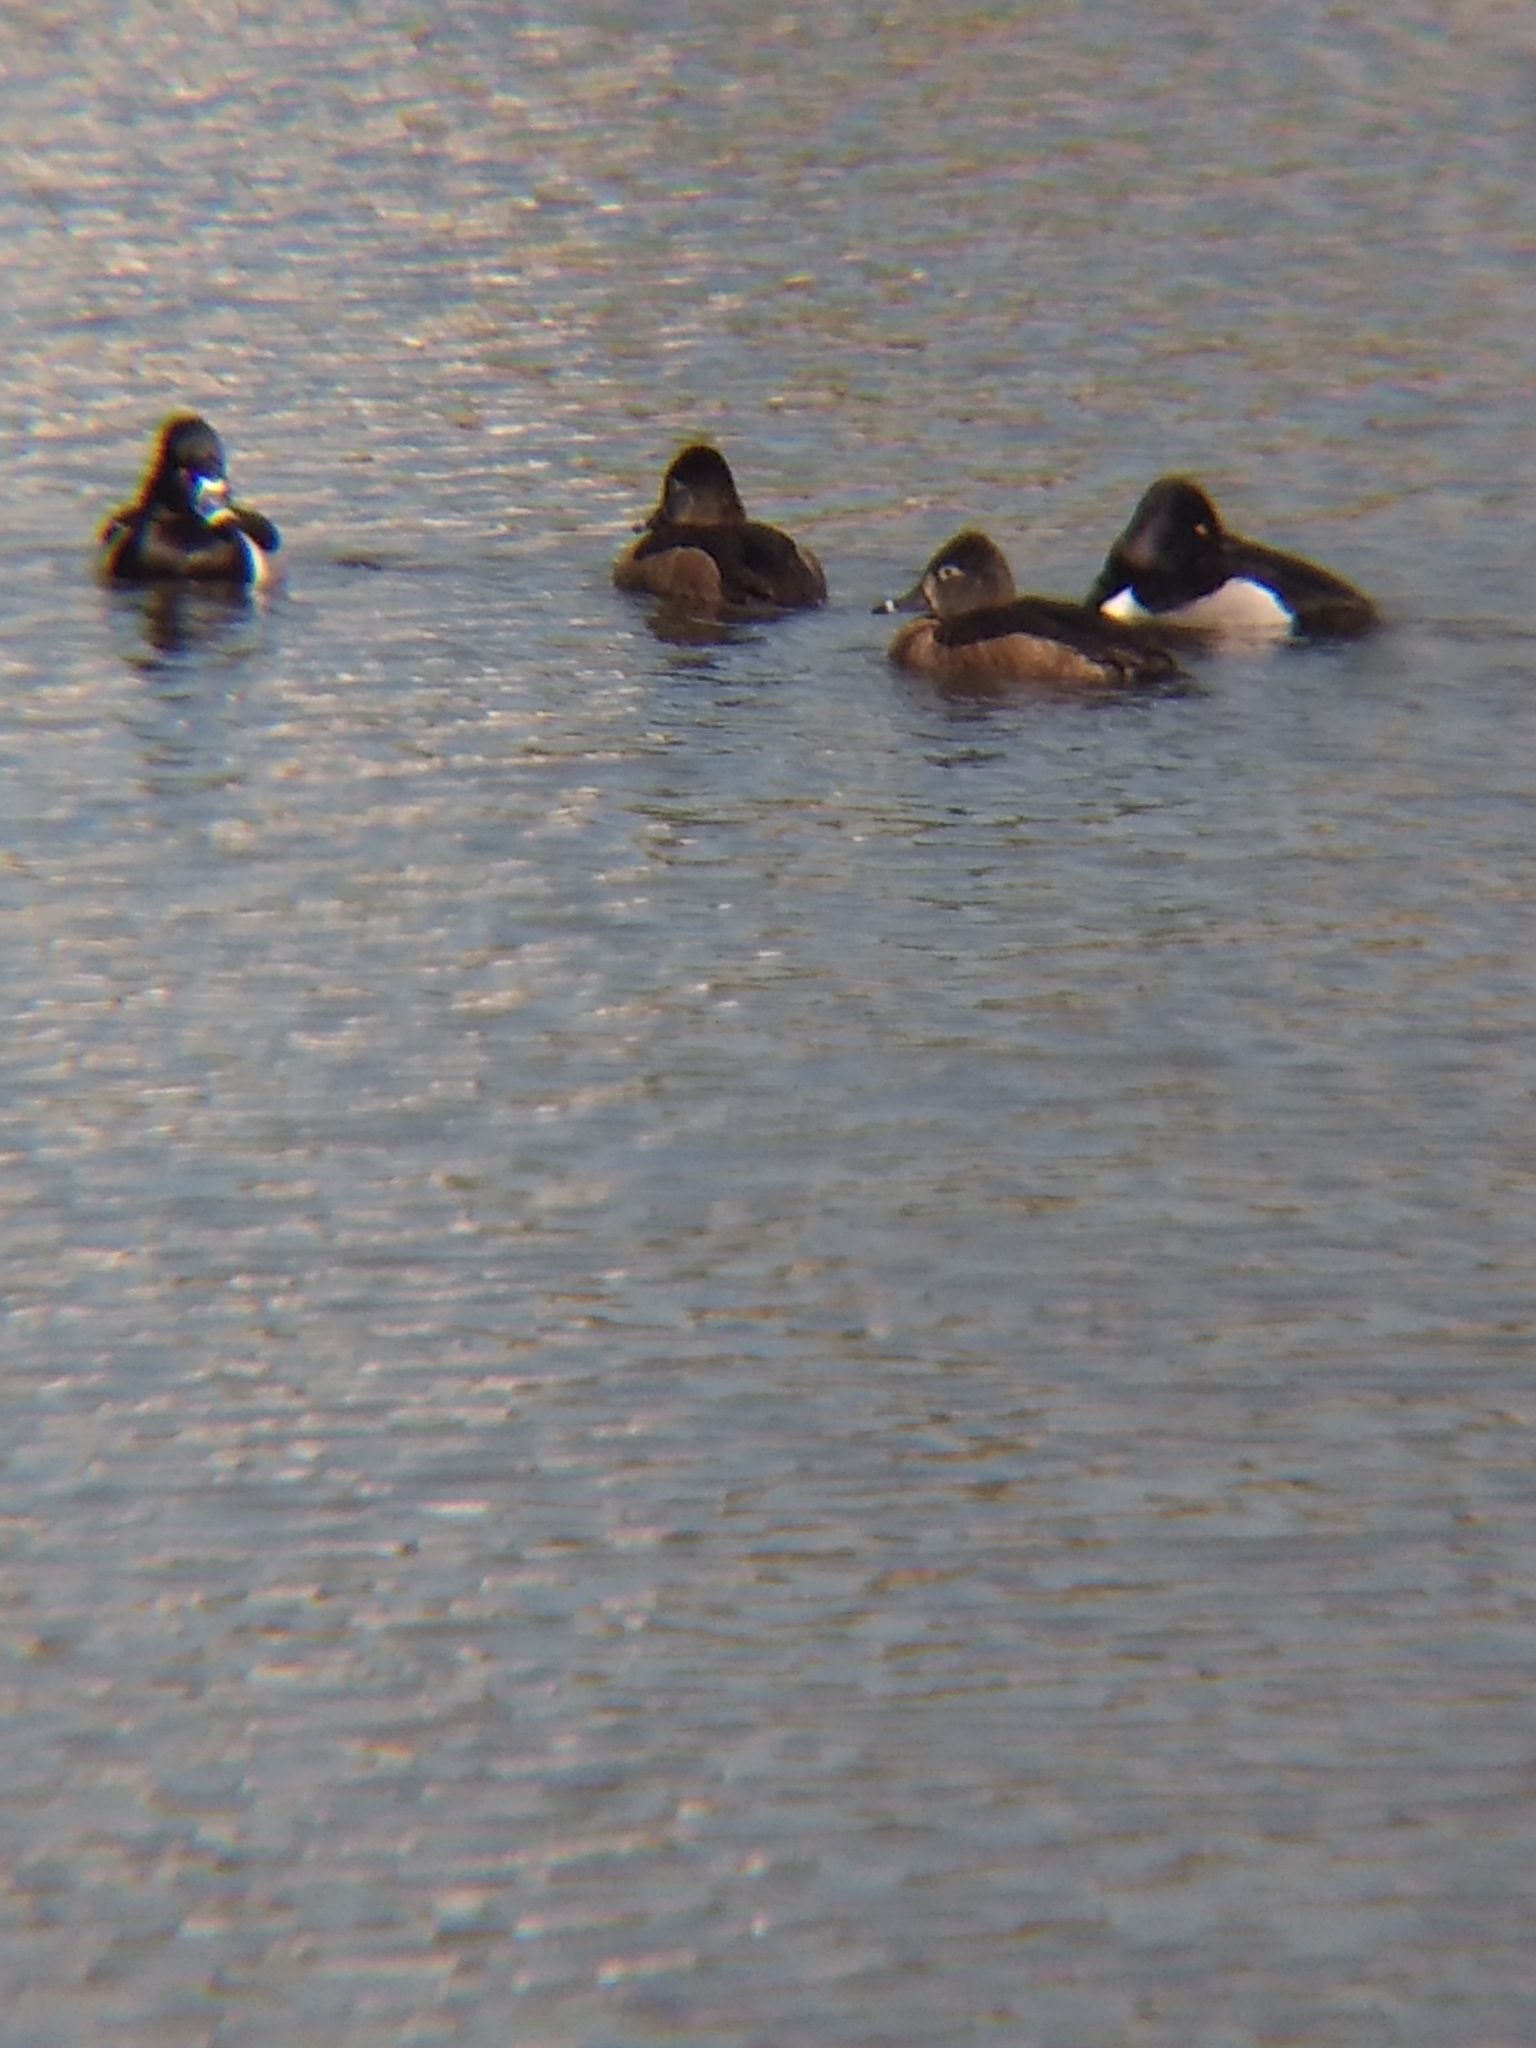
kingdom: Animalia
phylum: Chordata
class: Aves
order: Anseriformes
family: Anatidae
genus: Aythya
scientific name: Aythya collaris
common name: Ring-necked duck
